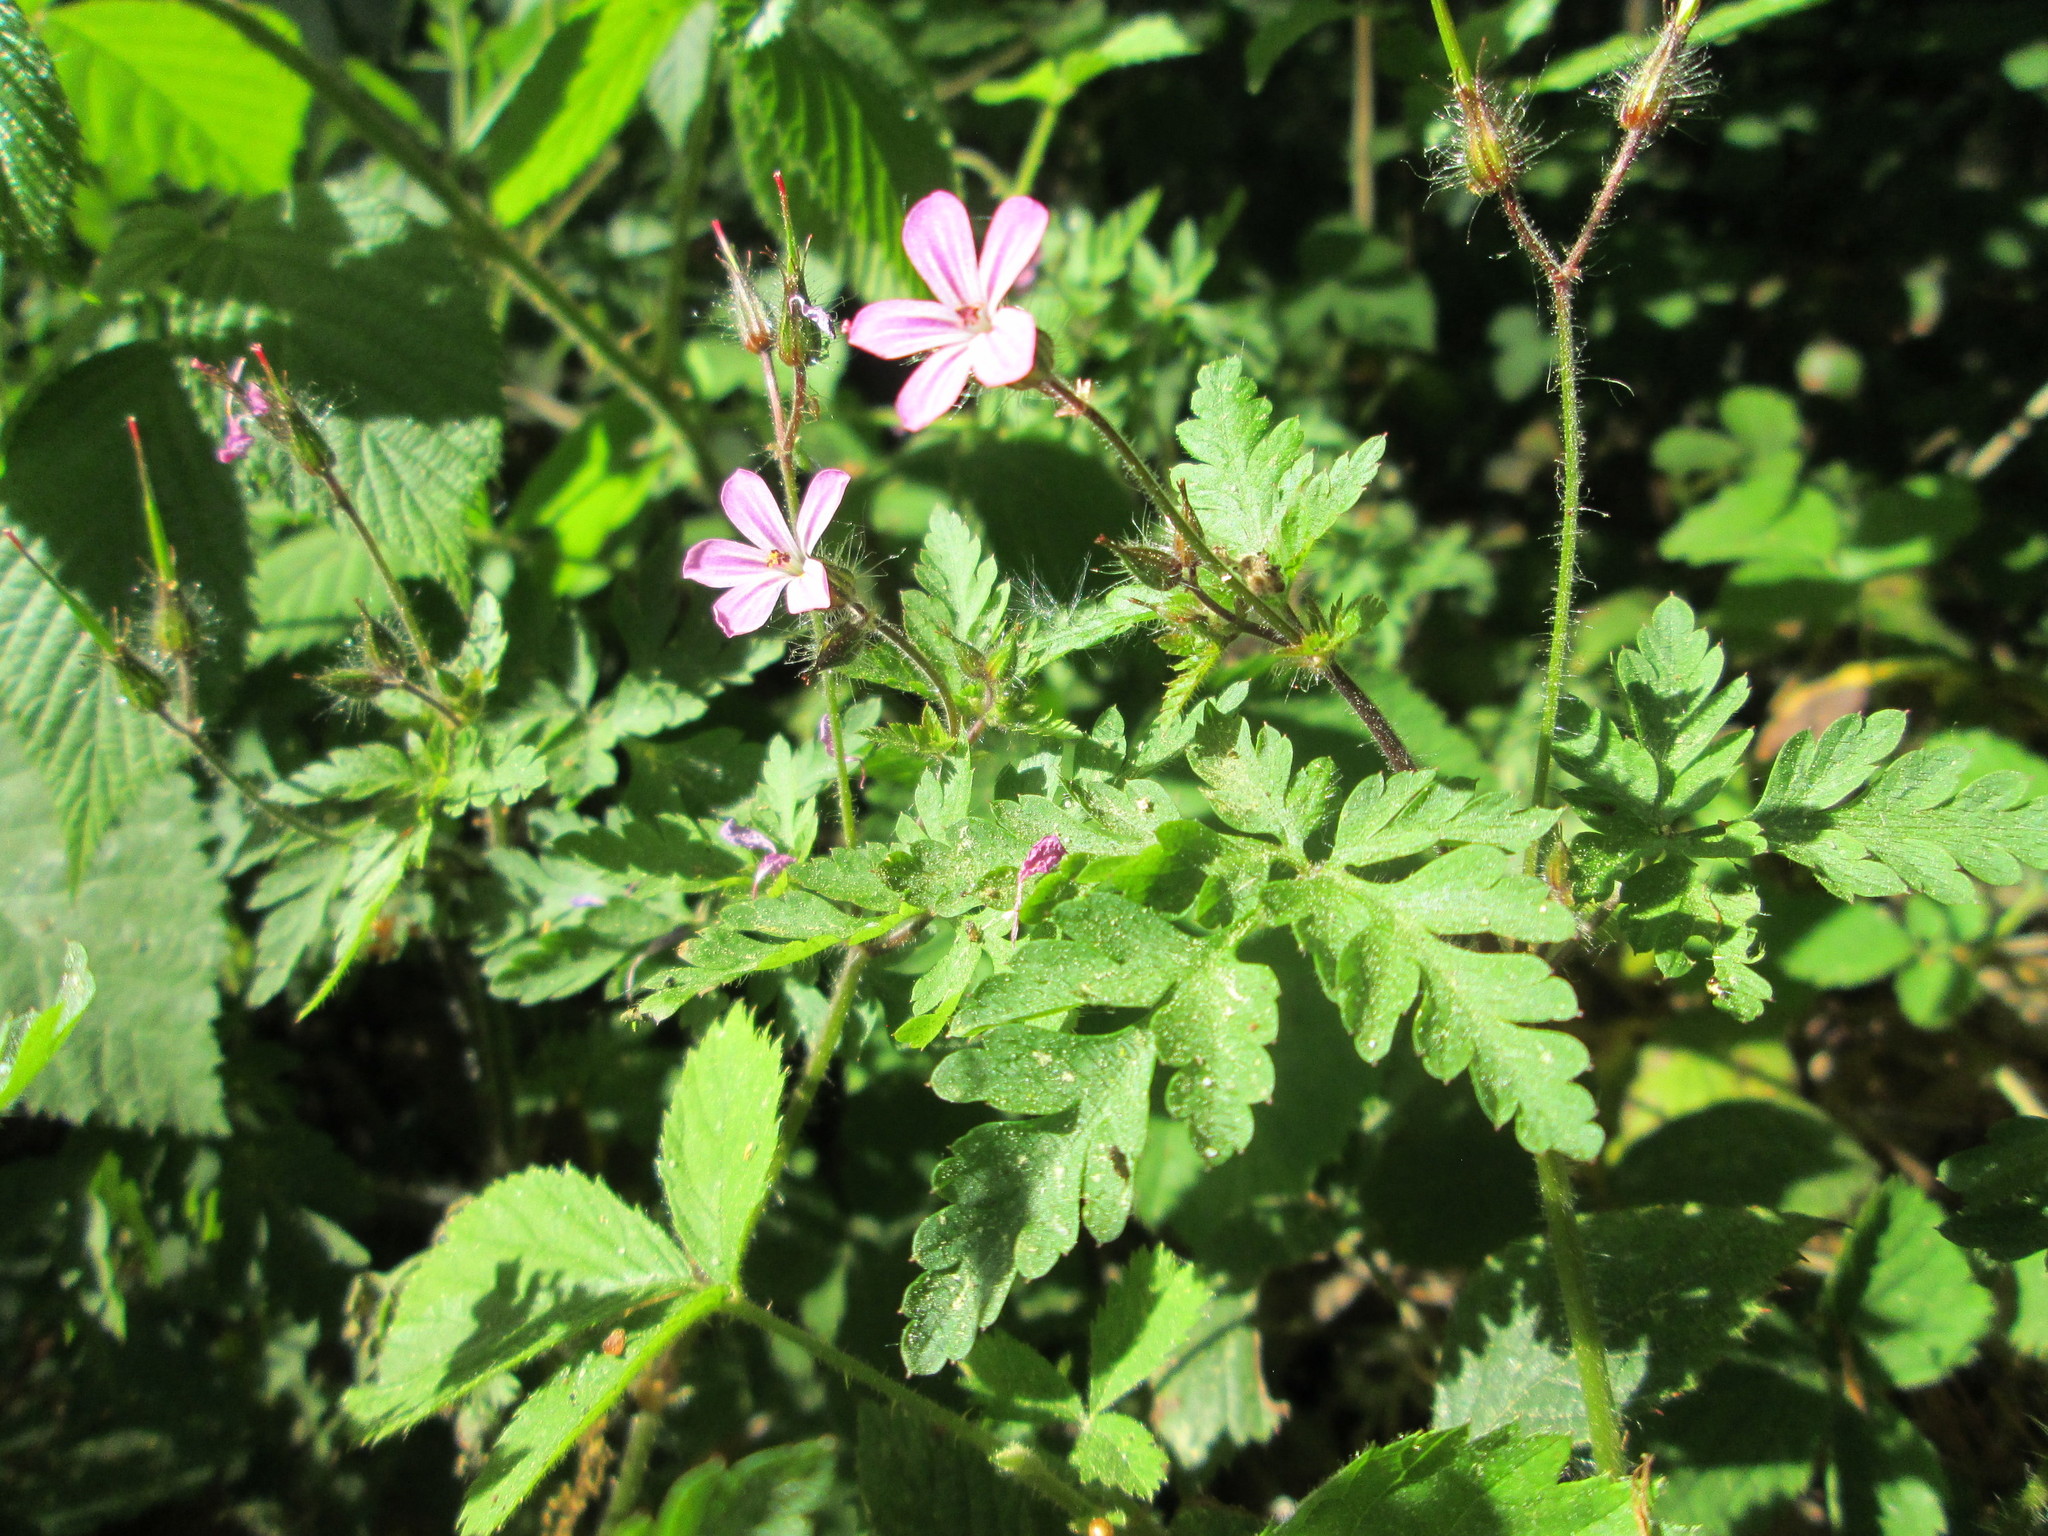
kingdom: Plantae
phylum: Tracheophyta
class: Magnoliopsida
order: Geraniales
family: Geraniaceae
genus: Geranium
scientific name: Geranium robertianum
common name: Herb-robert
